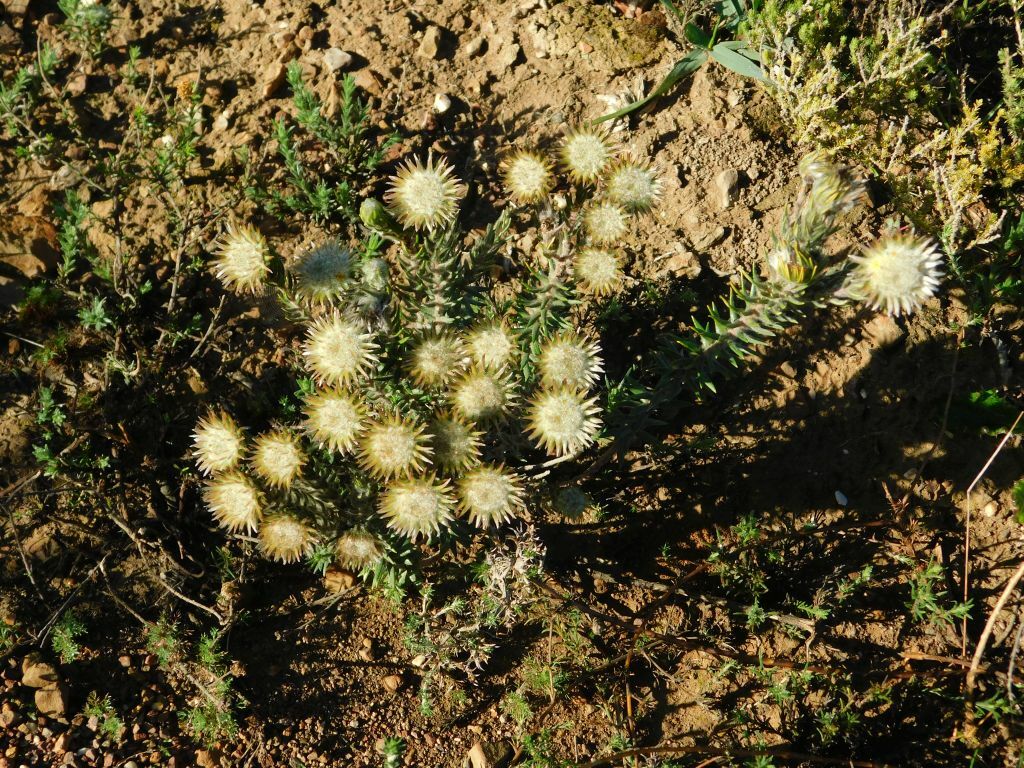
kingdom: Plantae
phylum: Tracheophyta
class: Magnoliopsida
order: Rosales
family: Rhamnaceae
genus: Phylica
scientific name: Phylica calcarata
